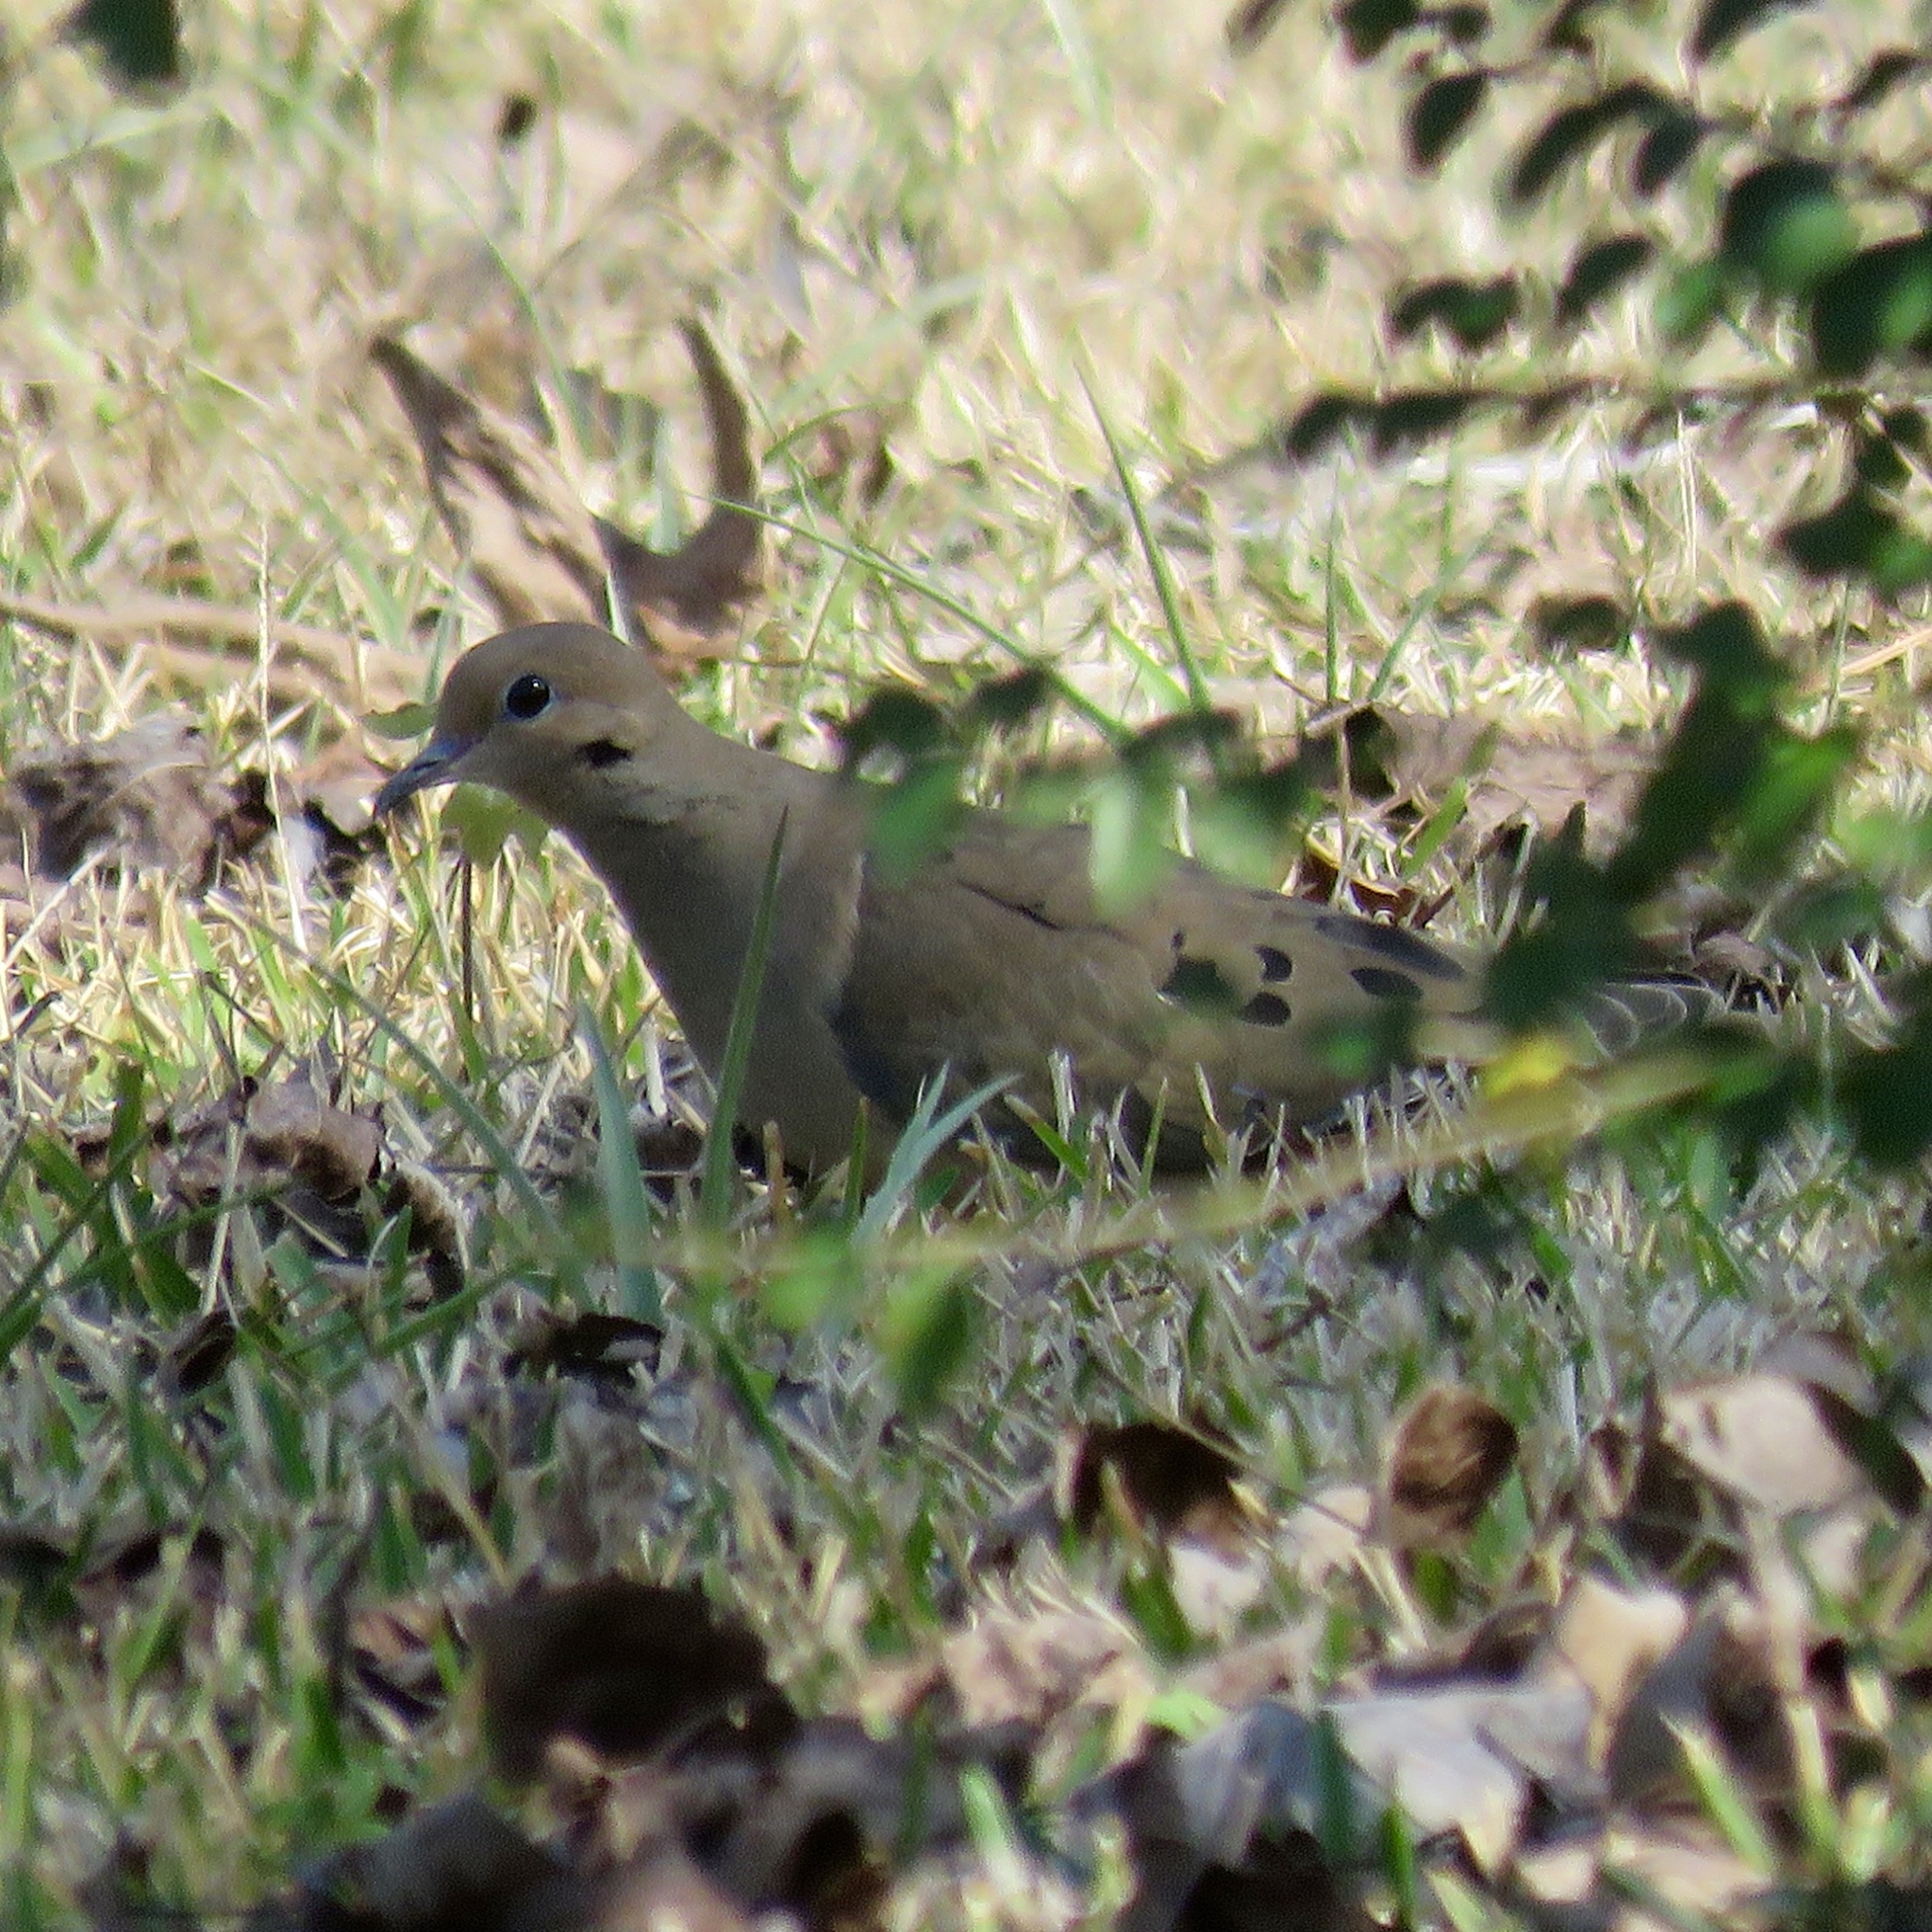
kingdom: Animalia
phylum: Chordata
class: Aves
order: Columbiformes
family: Columbidae
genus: Zenaida
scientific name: Zenaida macroura
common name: Mourning dove
